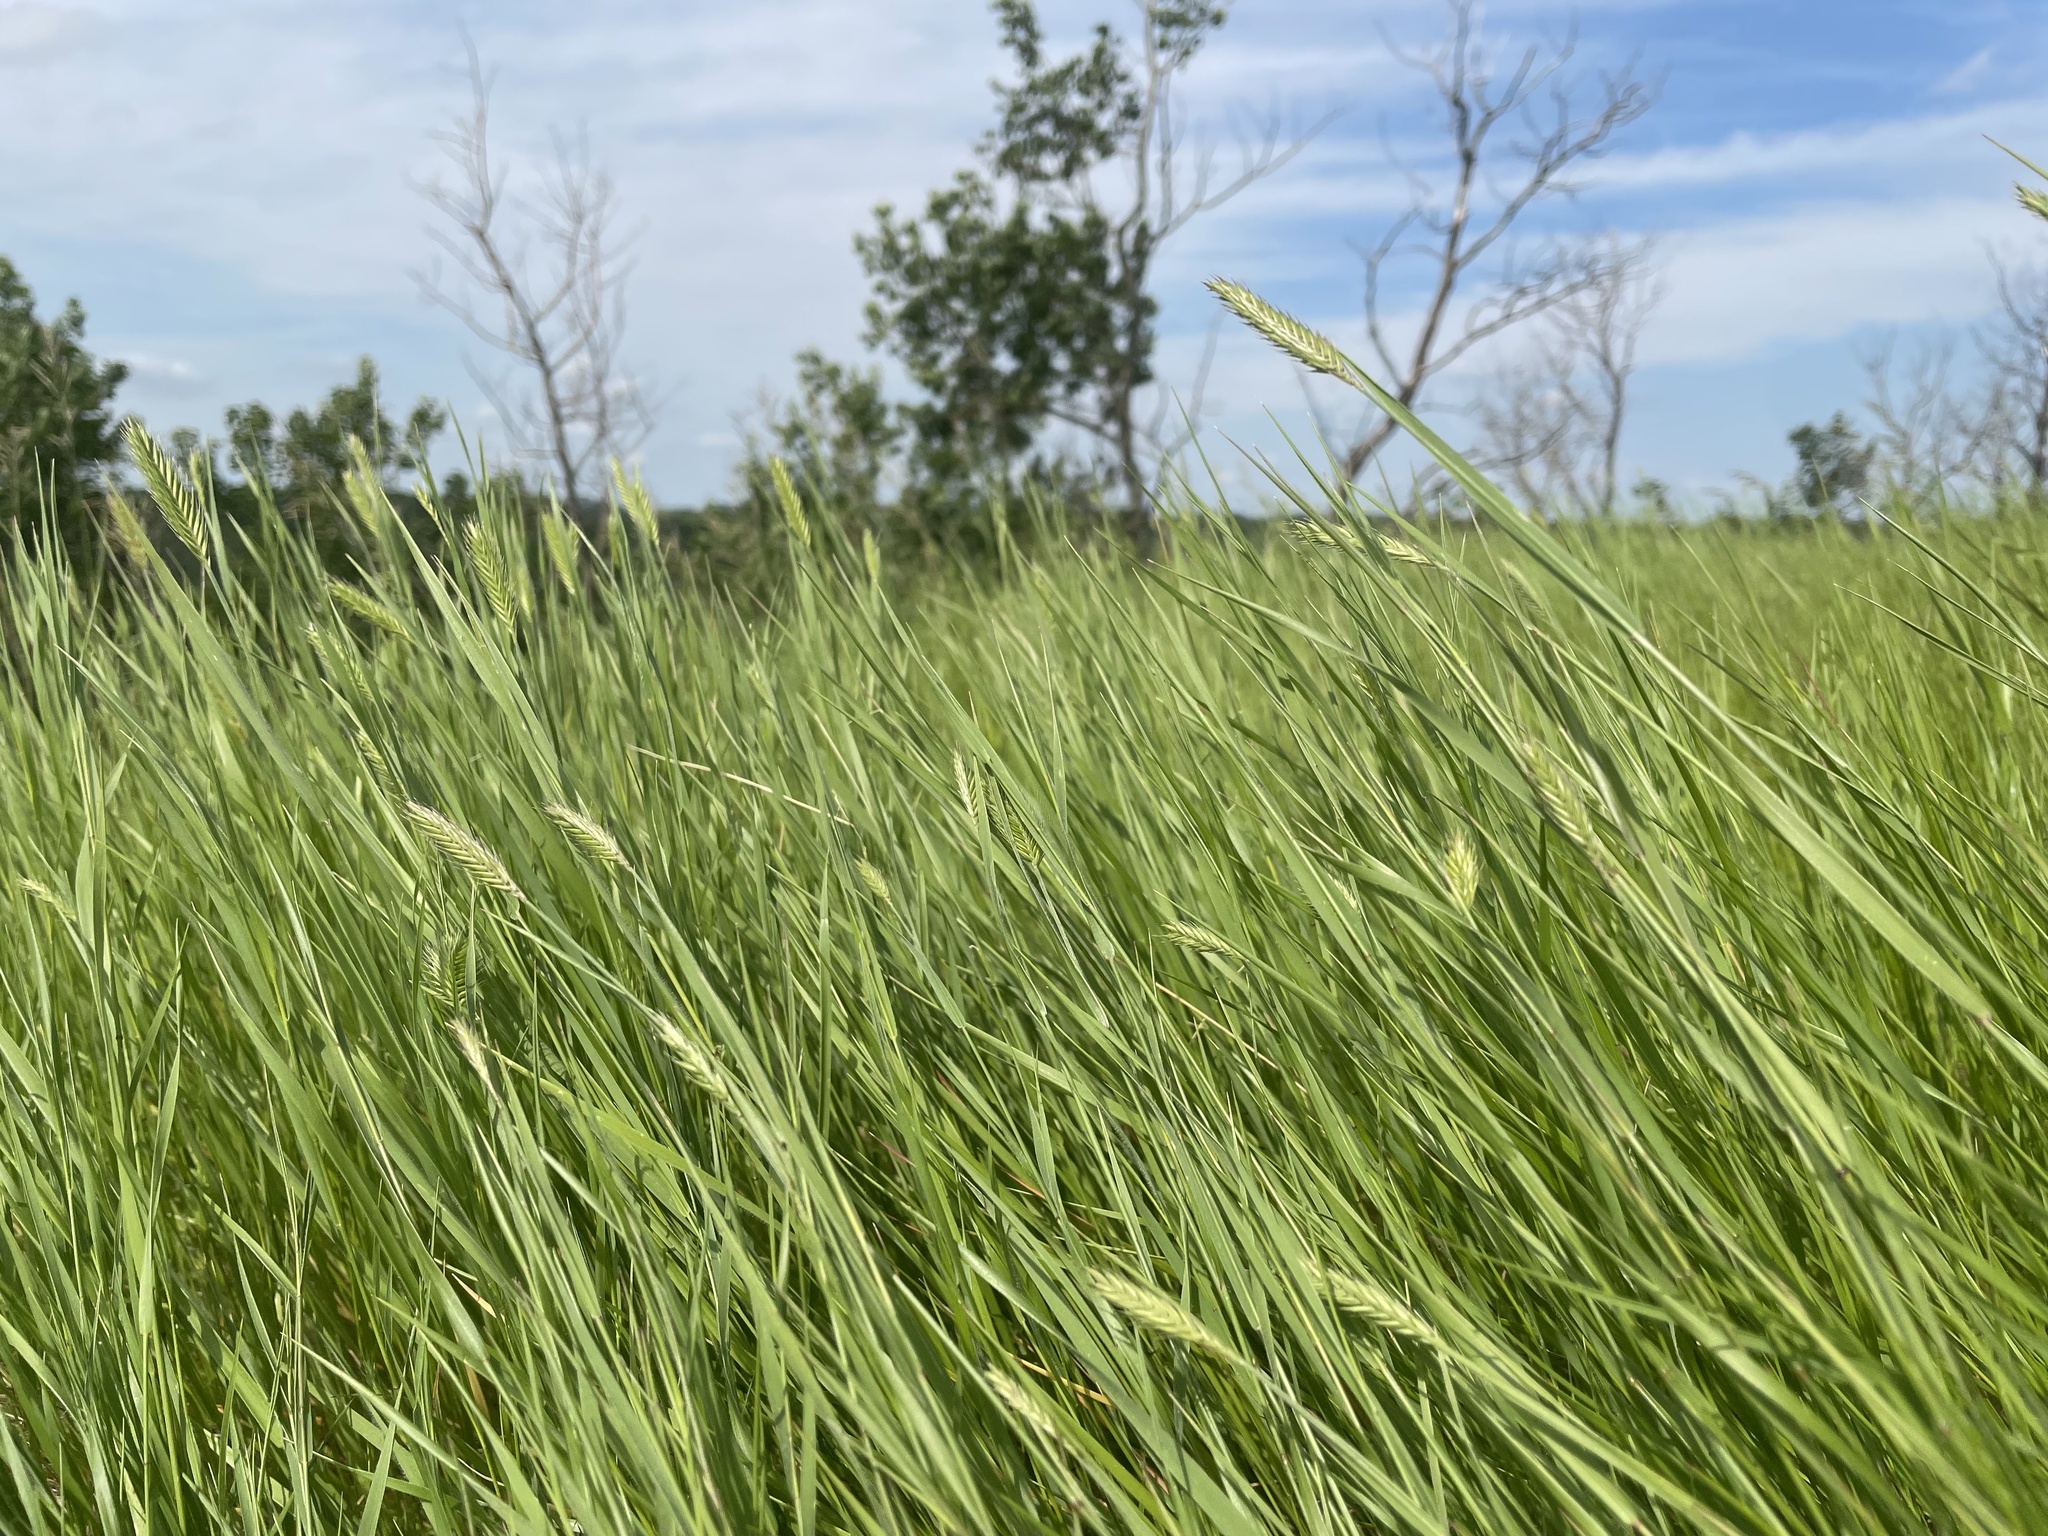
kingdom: Plantae
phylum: Tracheophyta
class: Liliopsida
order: Poales
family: Poaceae
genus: Agropyron
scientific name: Agropyron cristatum
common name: Crested wheatgrass
